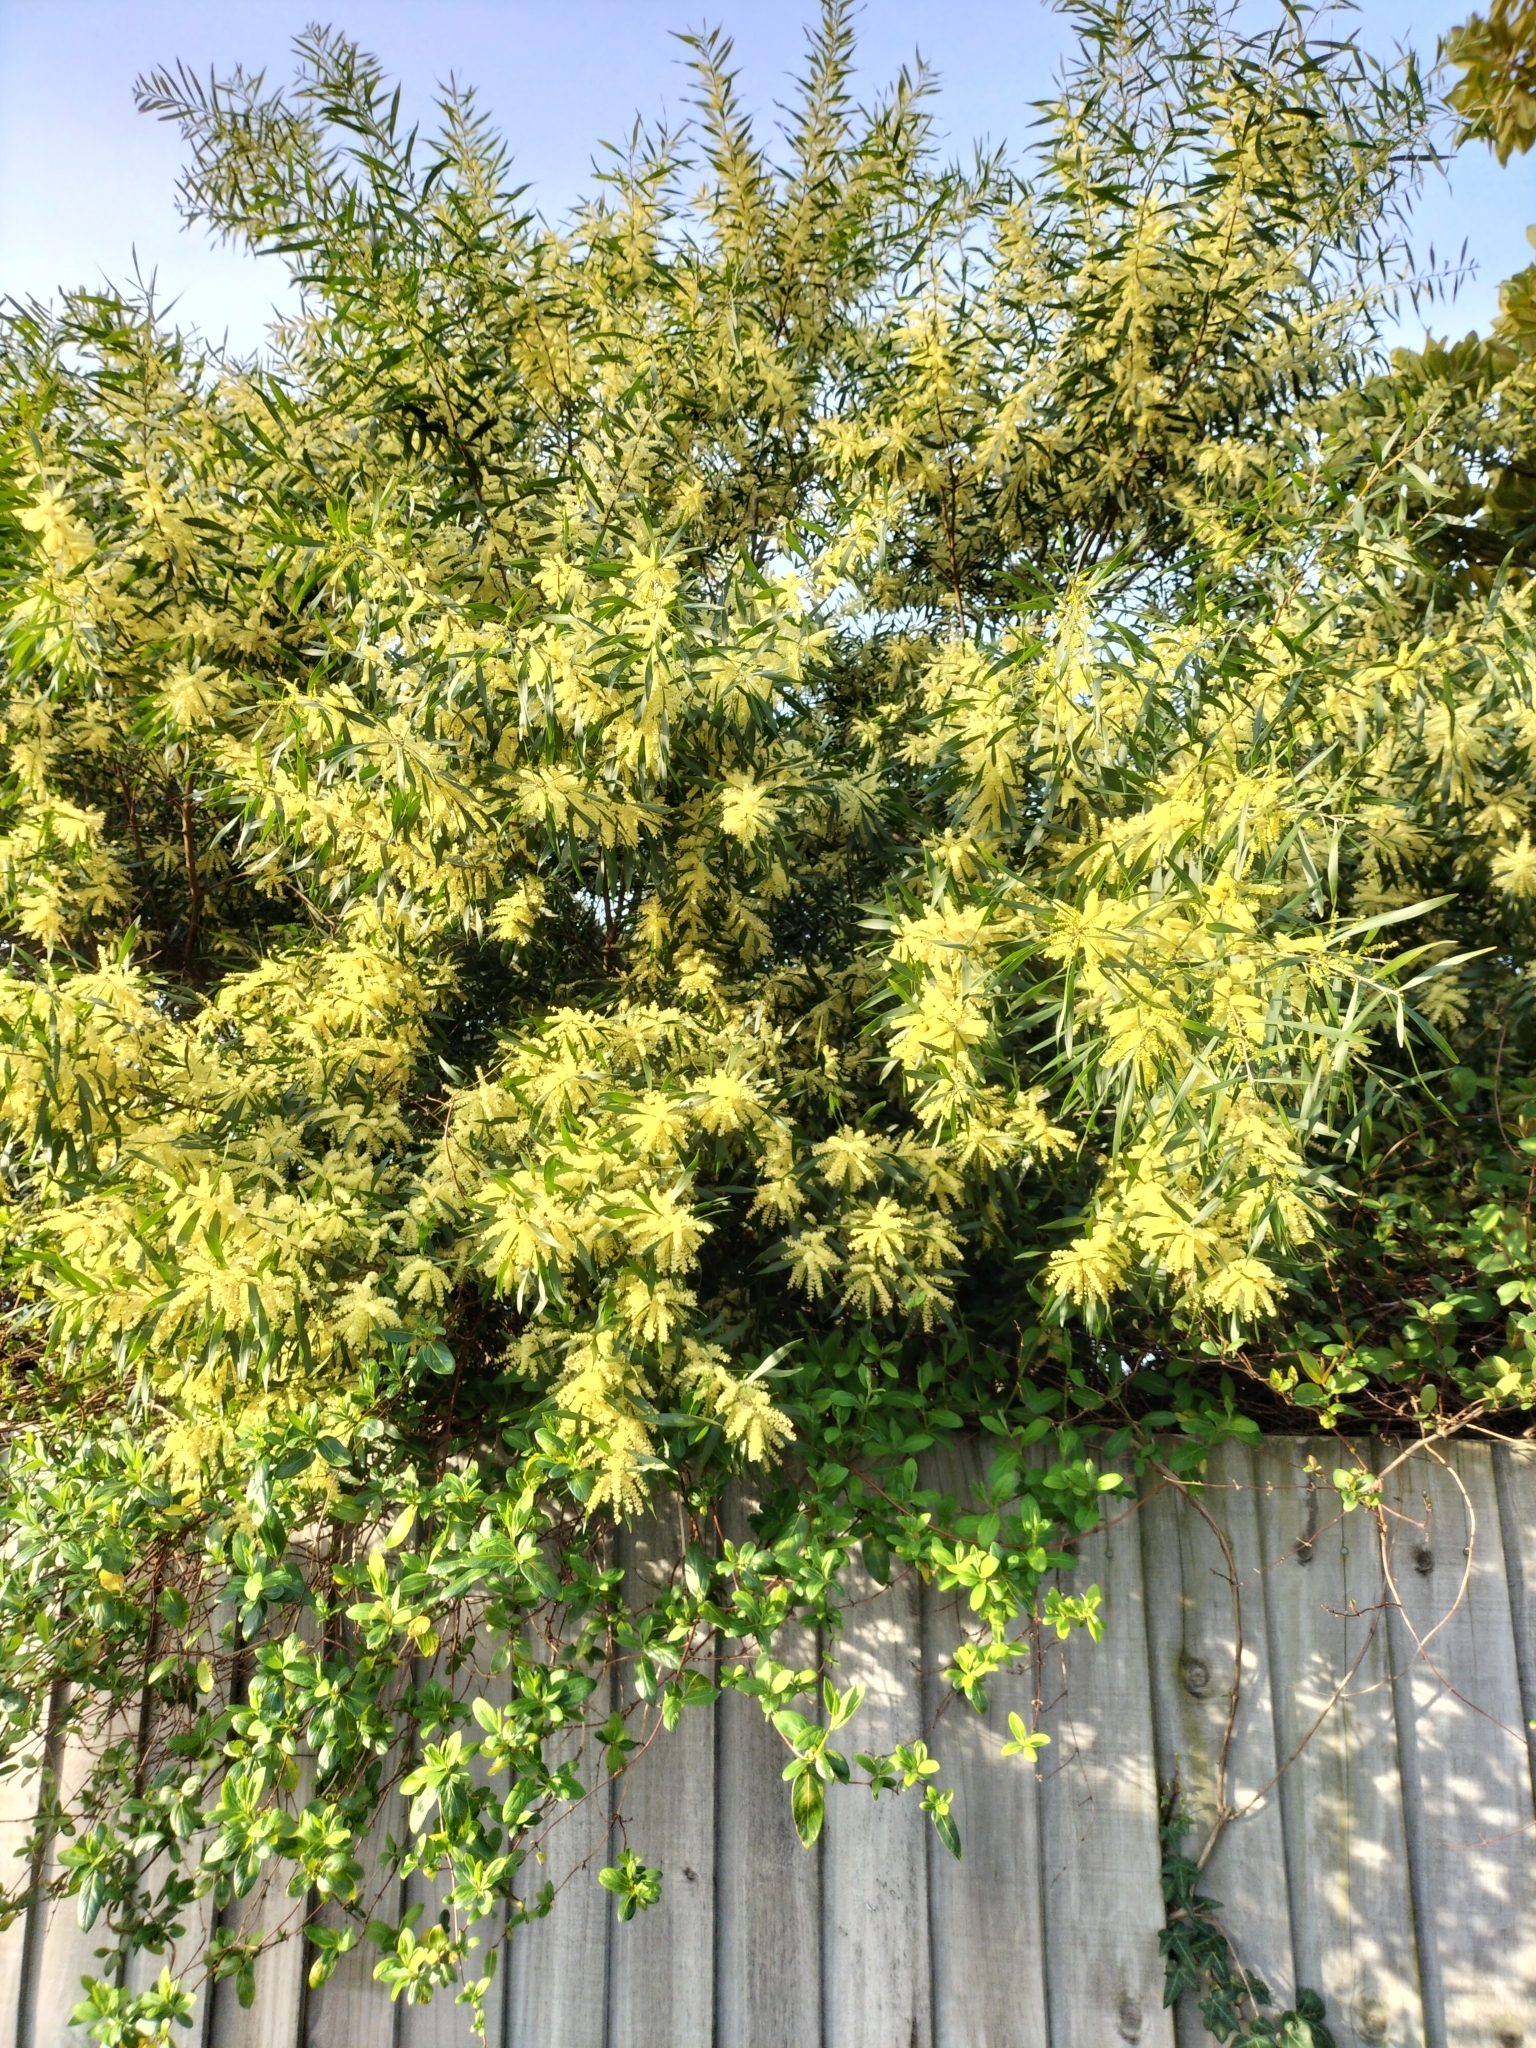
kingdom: Plantae
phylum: Tracheophyta
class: Magnoliopsida
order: Fabales
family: Fabaceae
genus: Acacia
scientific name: Acacia longifolia
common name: Sydney golden wattle
